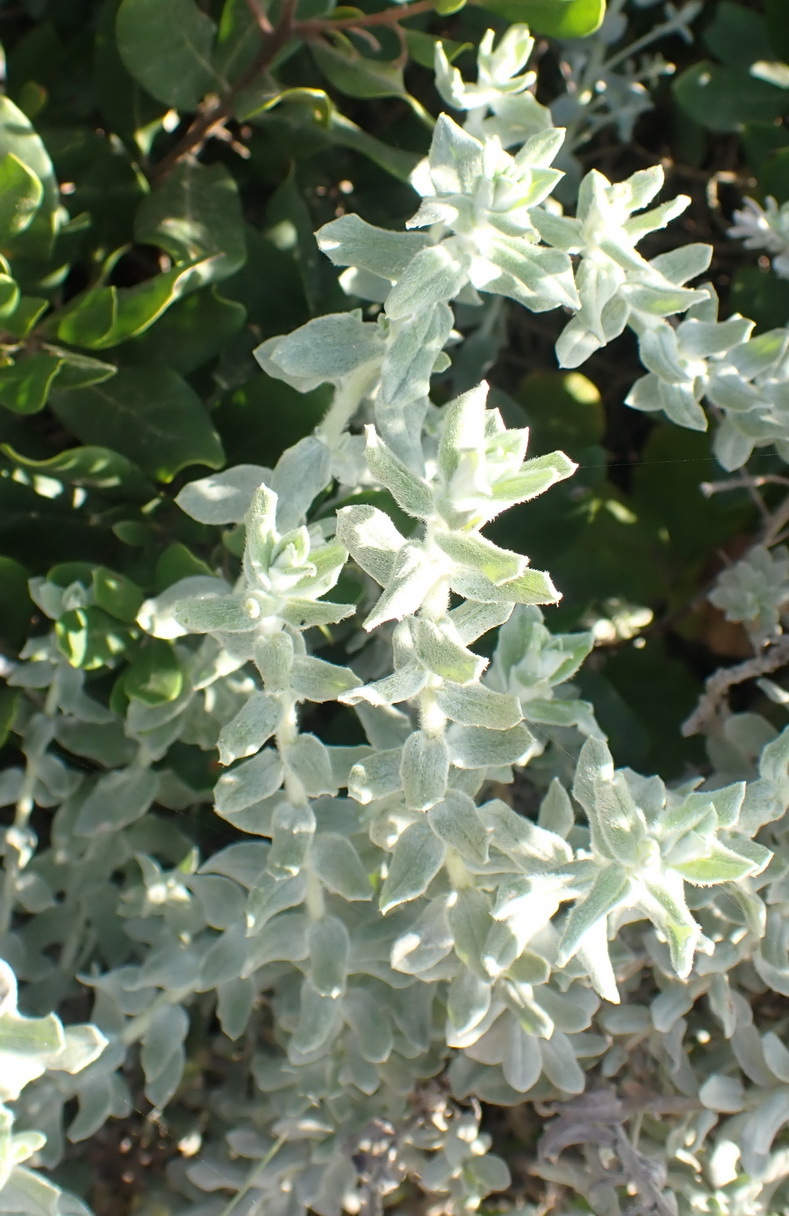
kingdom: Plantae
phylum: Tracheophyta
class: Magnoliopsida
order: Asterales
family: Asteraceae
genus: Helichrysum
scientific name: Helichrysum dasyanthum
